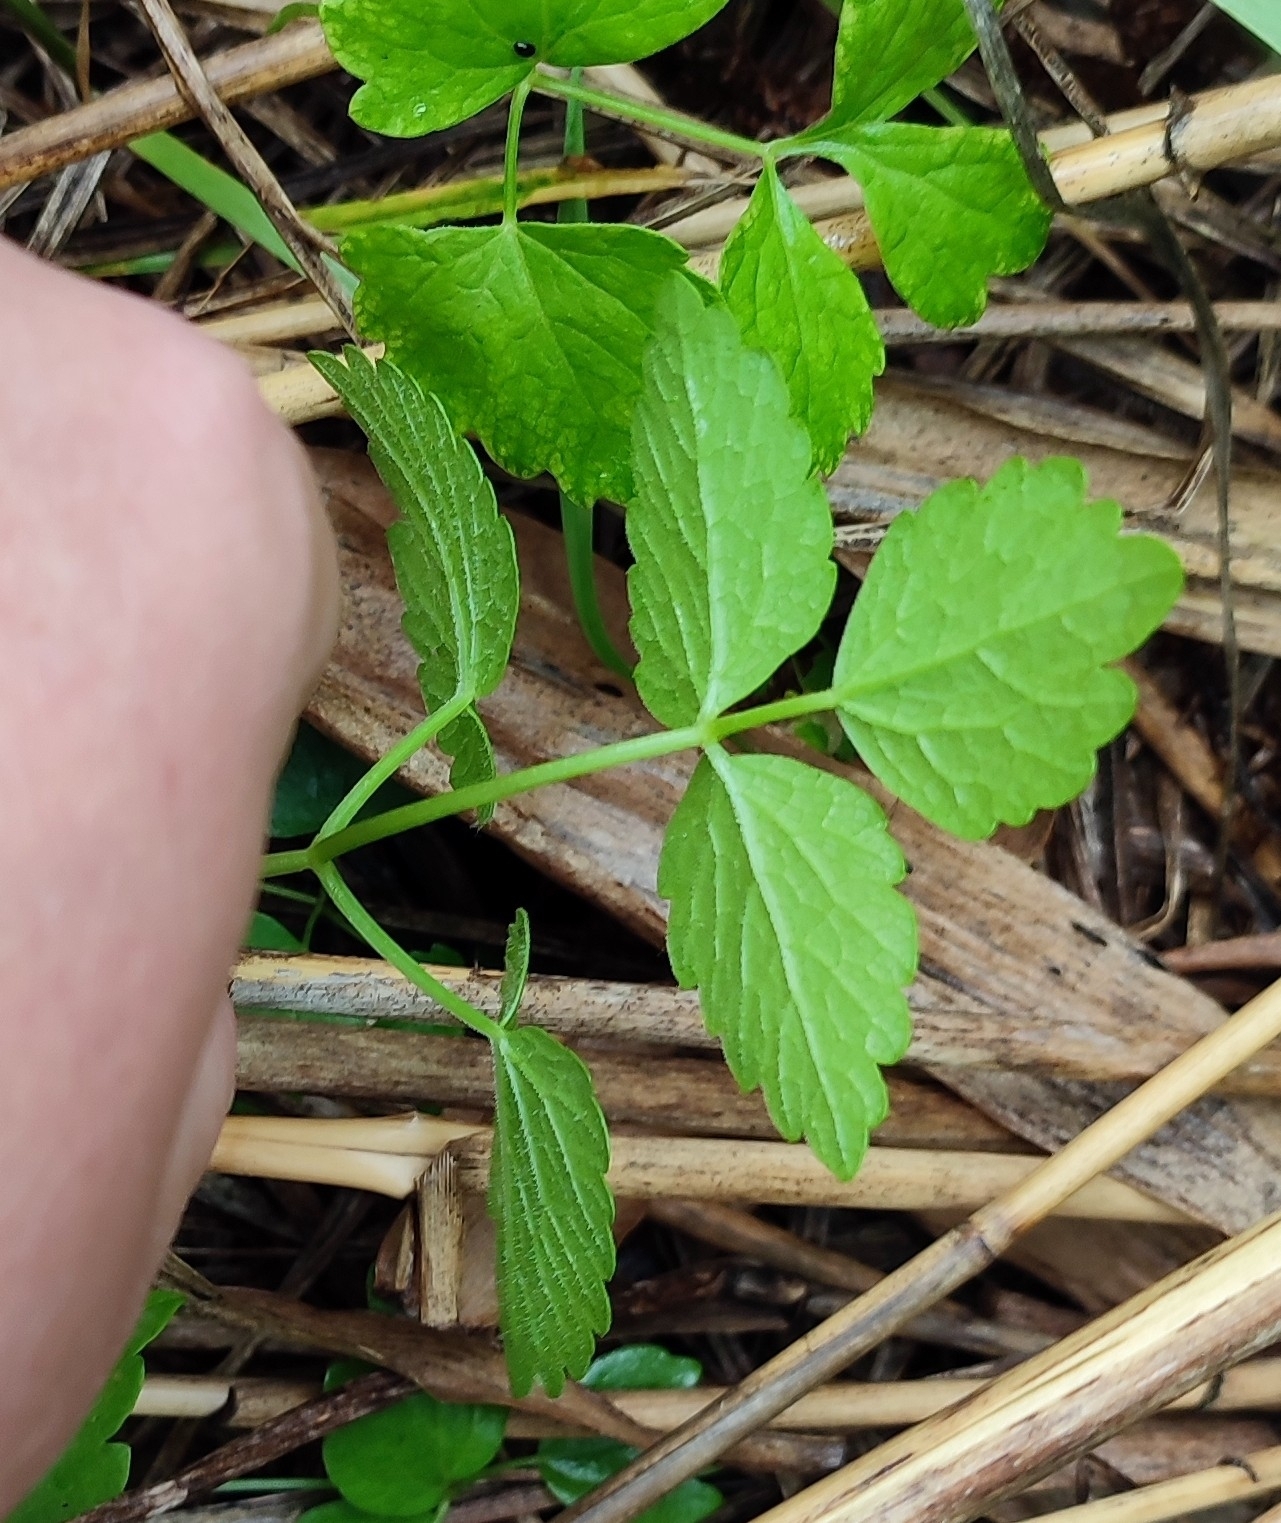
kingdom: Plantae
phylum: Tracheophyta
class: Magnoliopsida
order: Apiales
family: Apiaceae
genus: Ostericum
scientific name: Ostericum palustre
